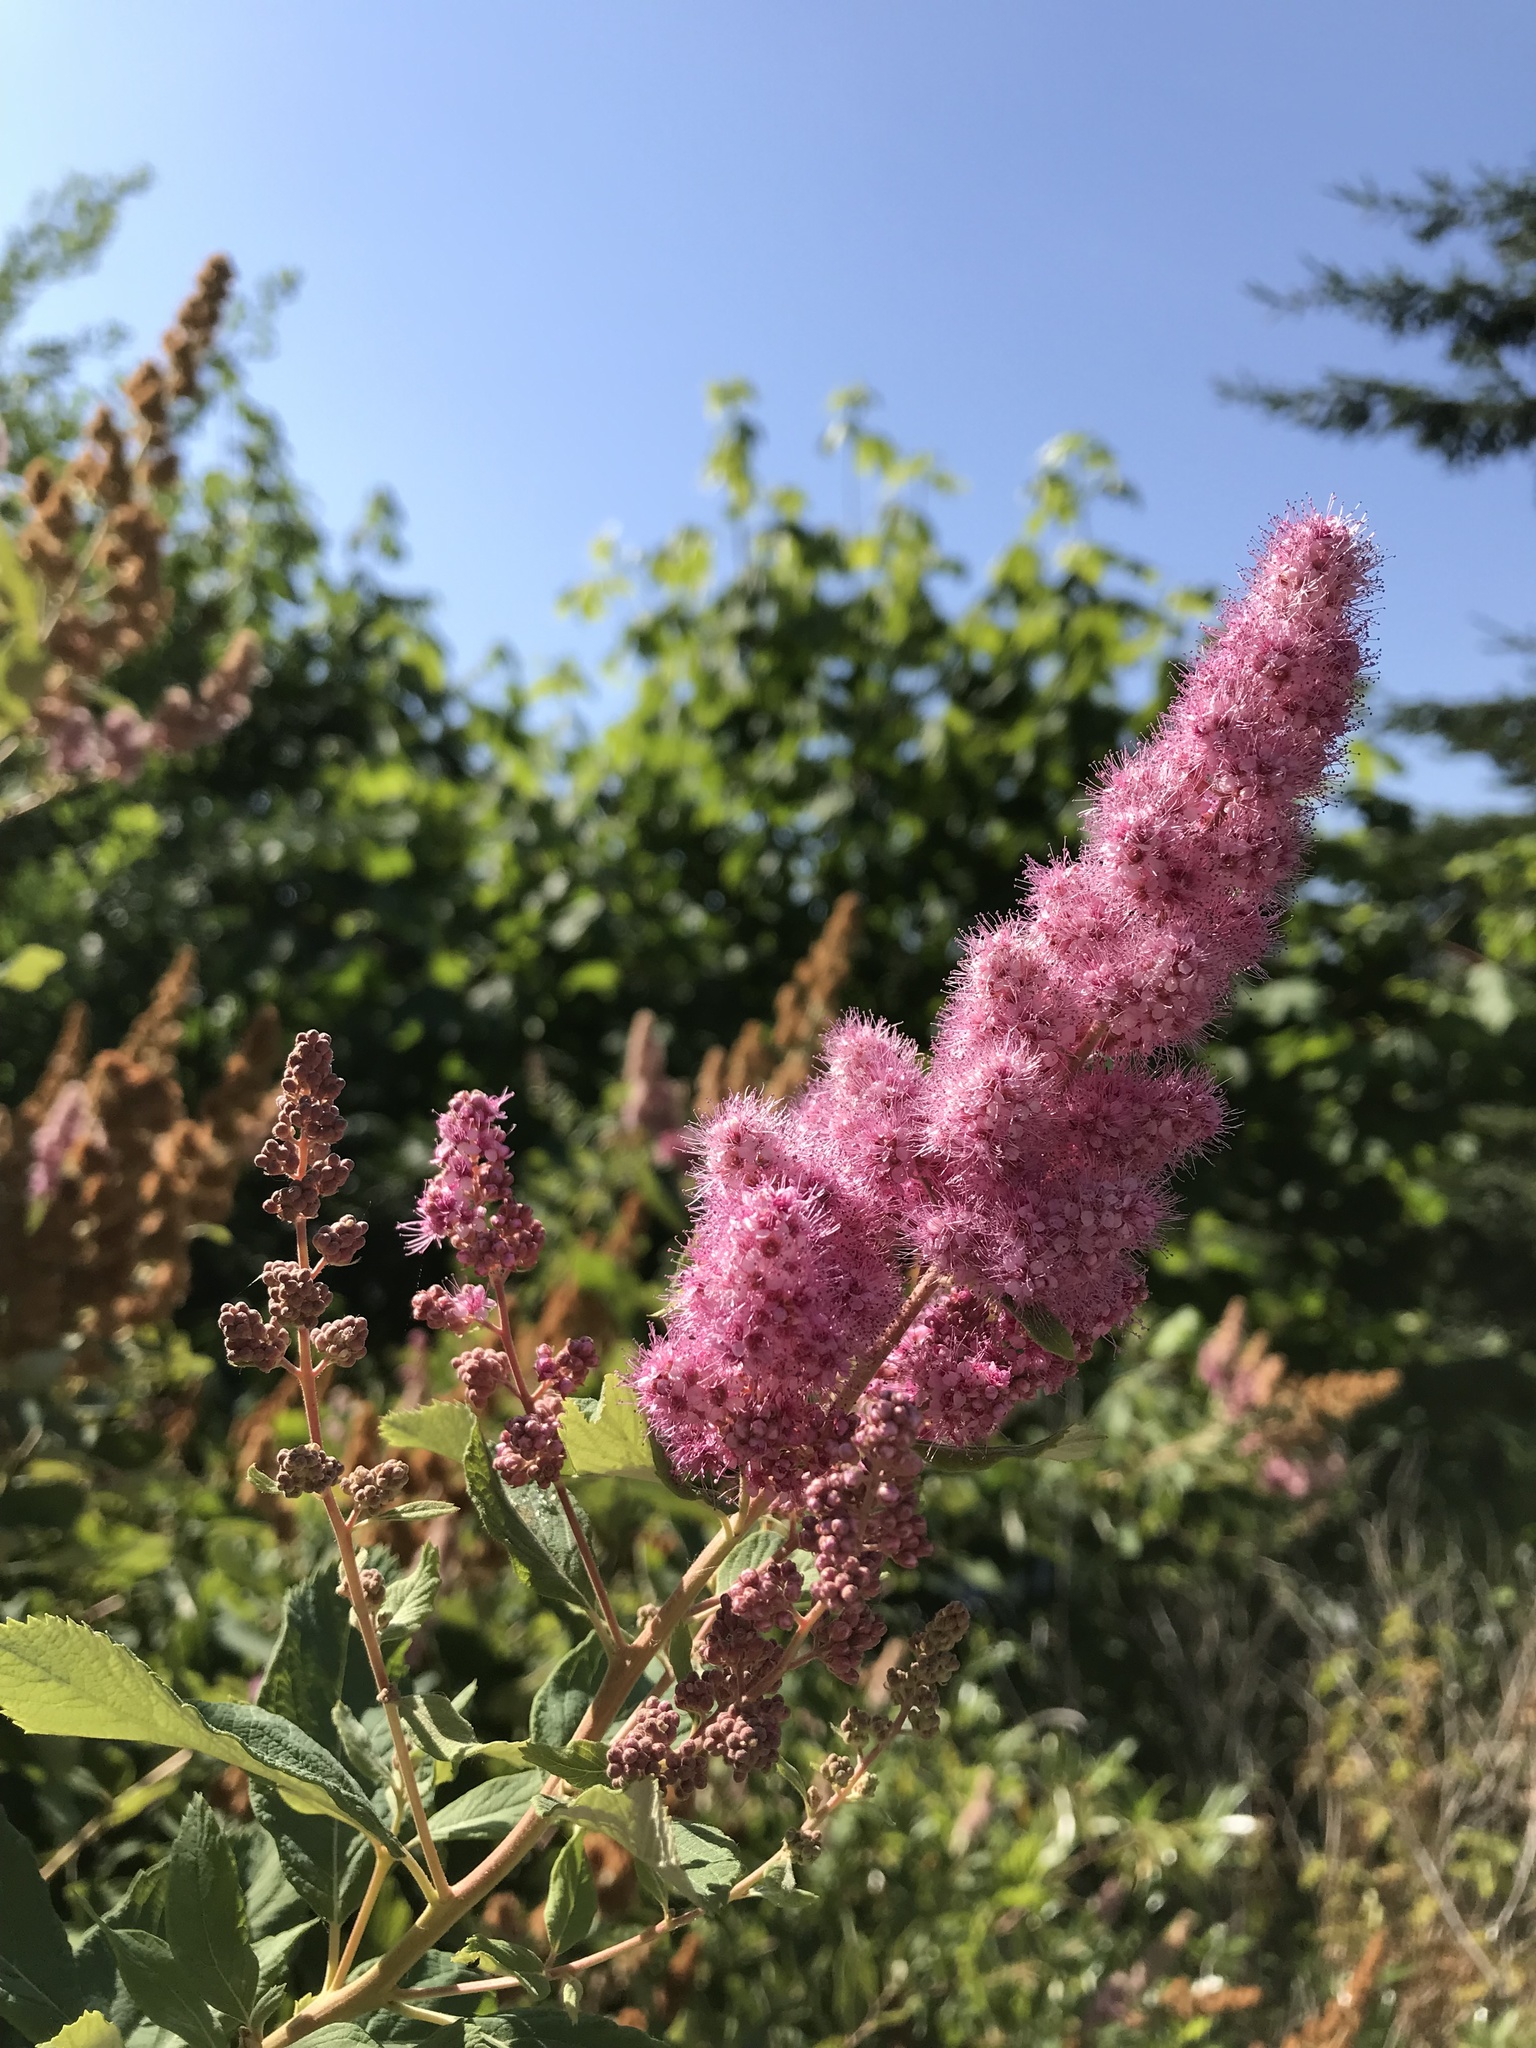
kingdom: Plantae
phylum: Tracheophyta
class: Magnoliopsida
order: Rosales
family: Rosaceae
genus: Spiraea
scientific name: Spiraea douglasii
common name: Steeplebush
